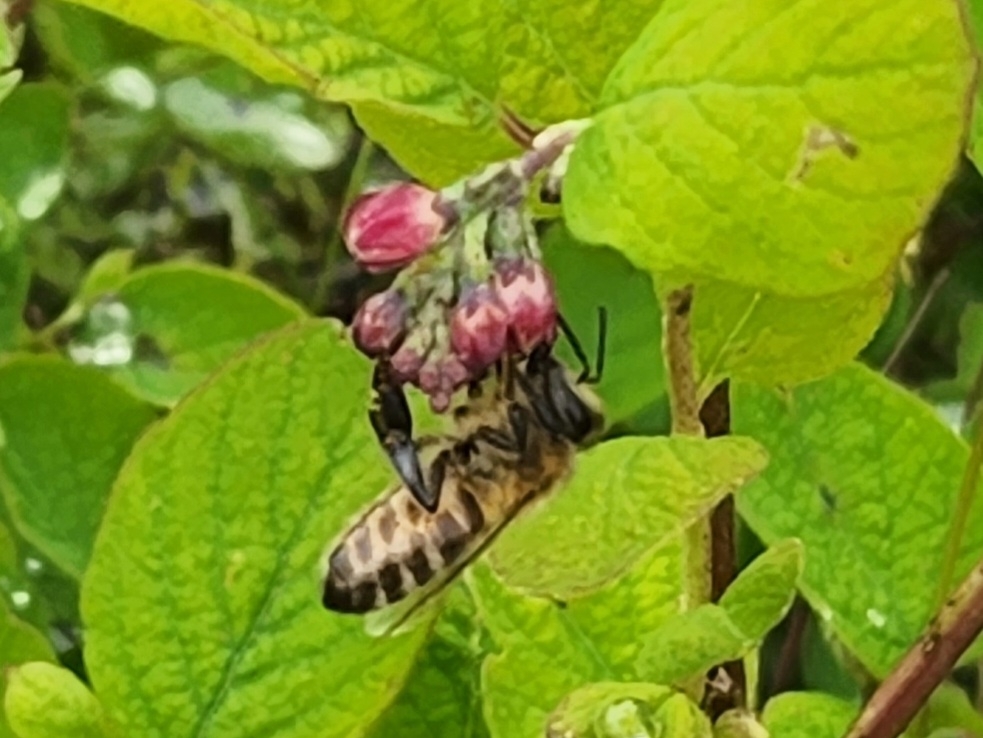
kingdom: Animalia
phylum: Arthropoda
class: Insecta
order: Hymenoptera
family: Apidae
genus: Apis
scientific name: Apis mellifera
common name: Honey bee
